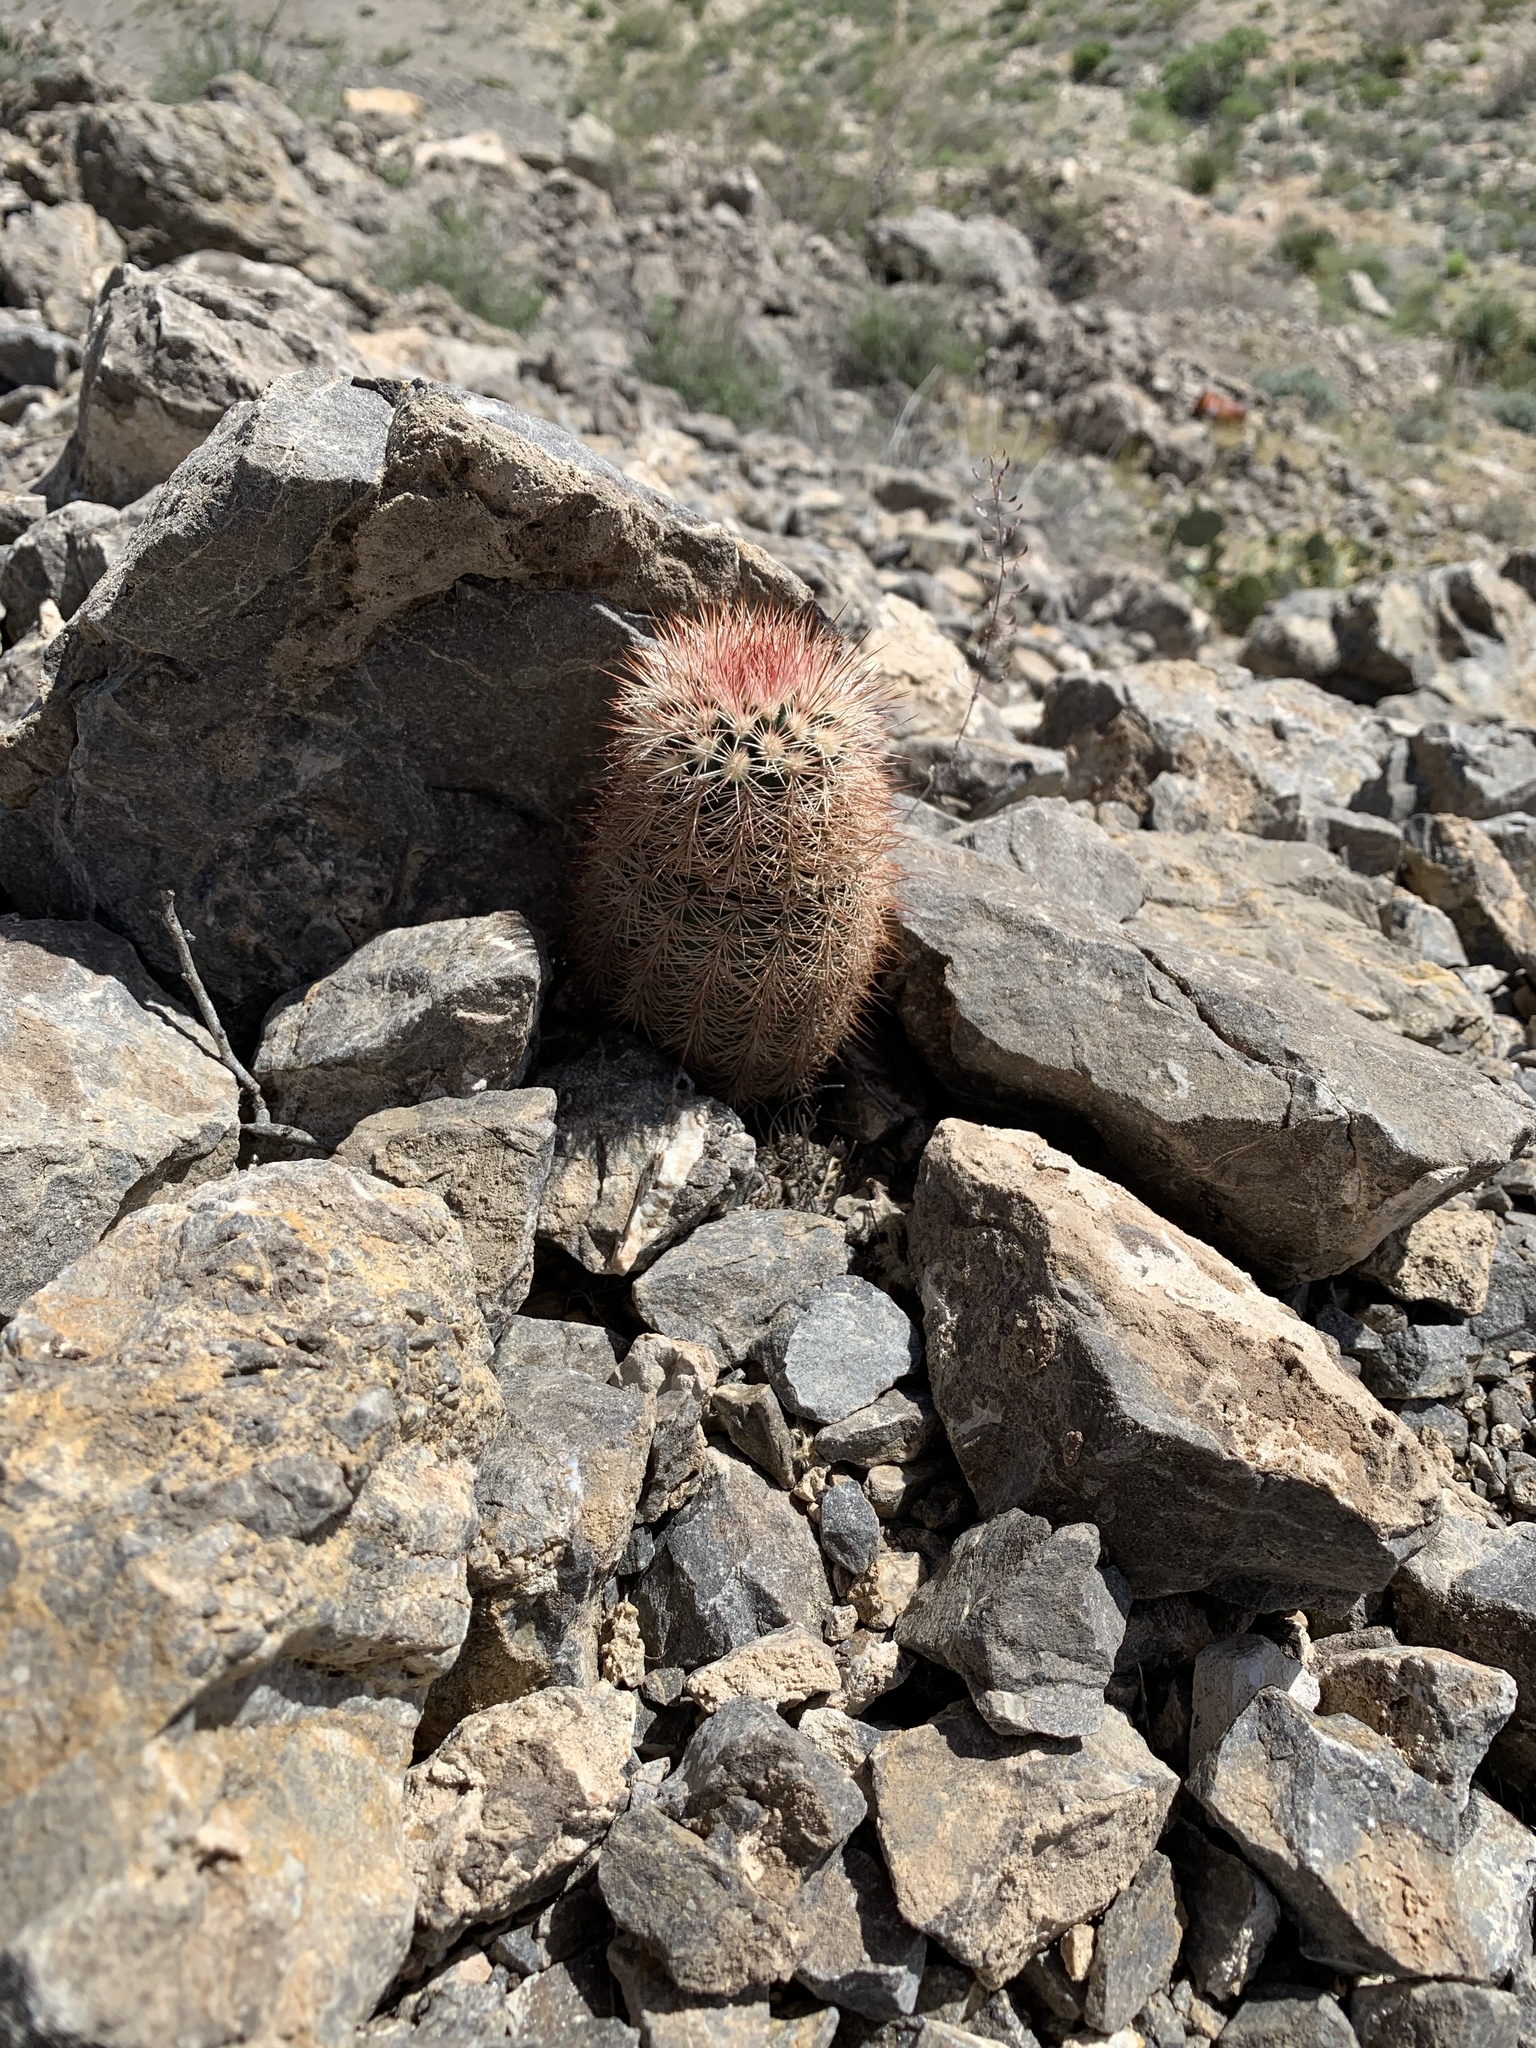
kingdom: Plantae
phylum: Tracheophyta
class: Magnoliopsida
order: Caryophyllales
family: Cactaceae
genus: Echinocereus
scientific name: Echinocereus dasyacanthus
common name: Spiny hedgehog cactus
